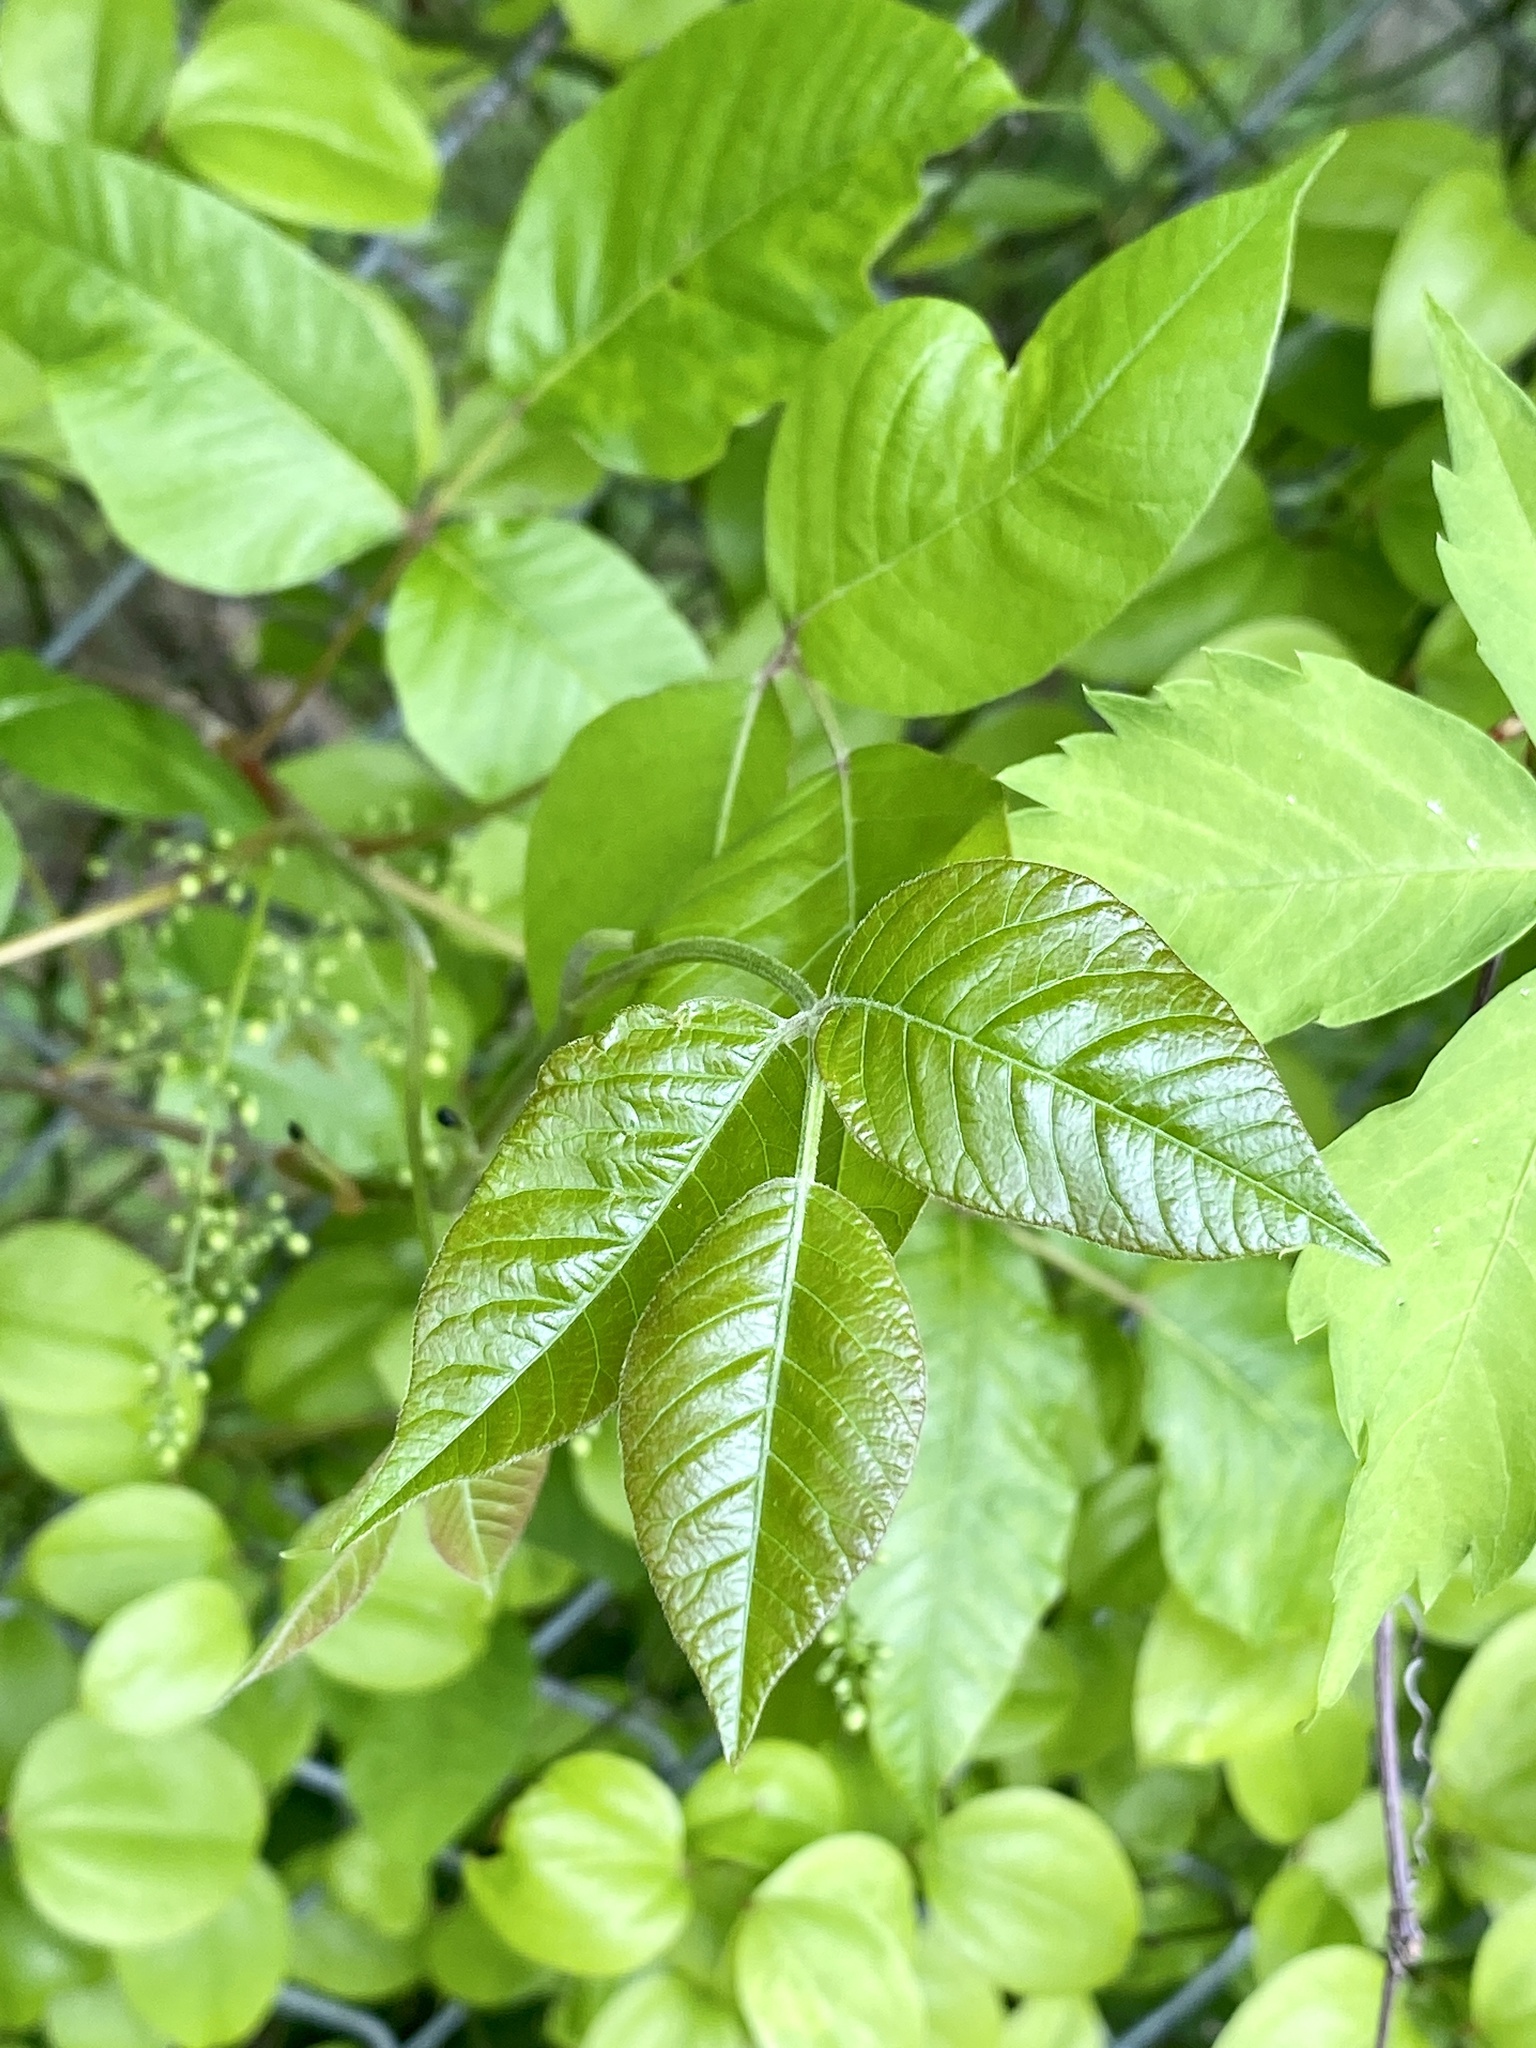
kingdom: Plantae
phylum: Tracheophyta
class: Magnoliopsida
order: Sapindales
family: Anacardiaceae
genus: Toxicodendron
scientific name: Toxicodendron radicans
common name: Poison ivy
